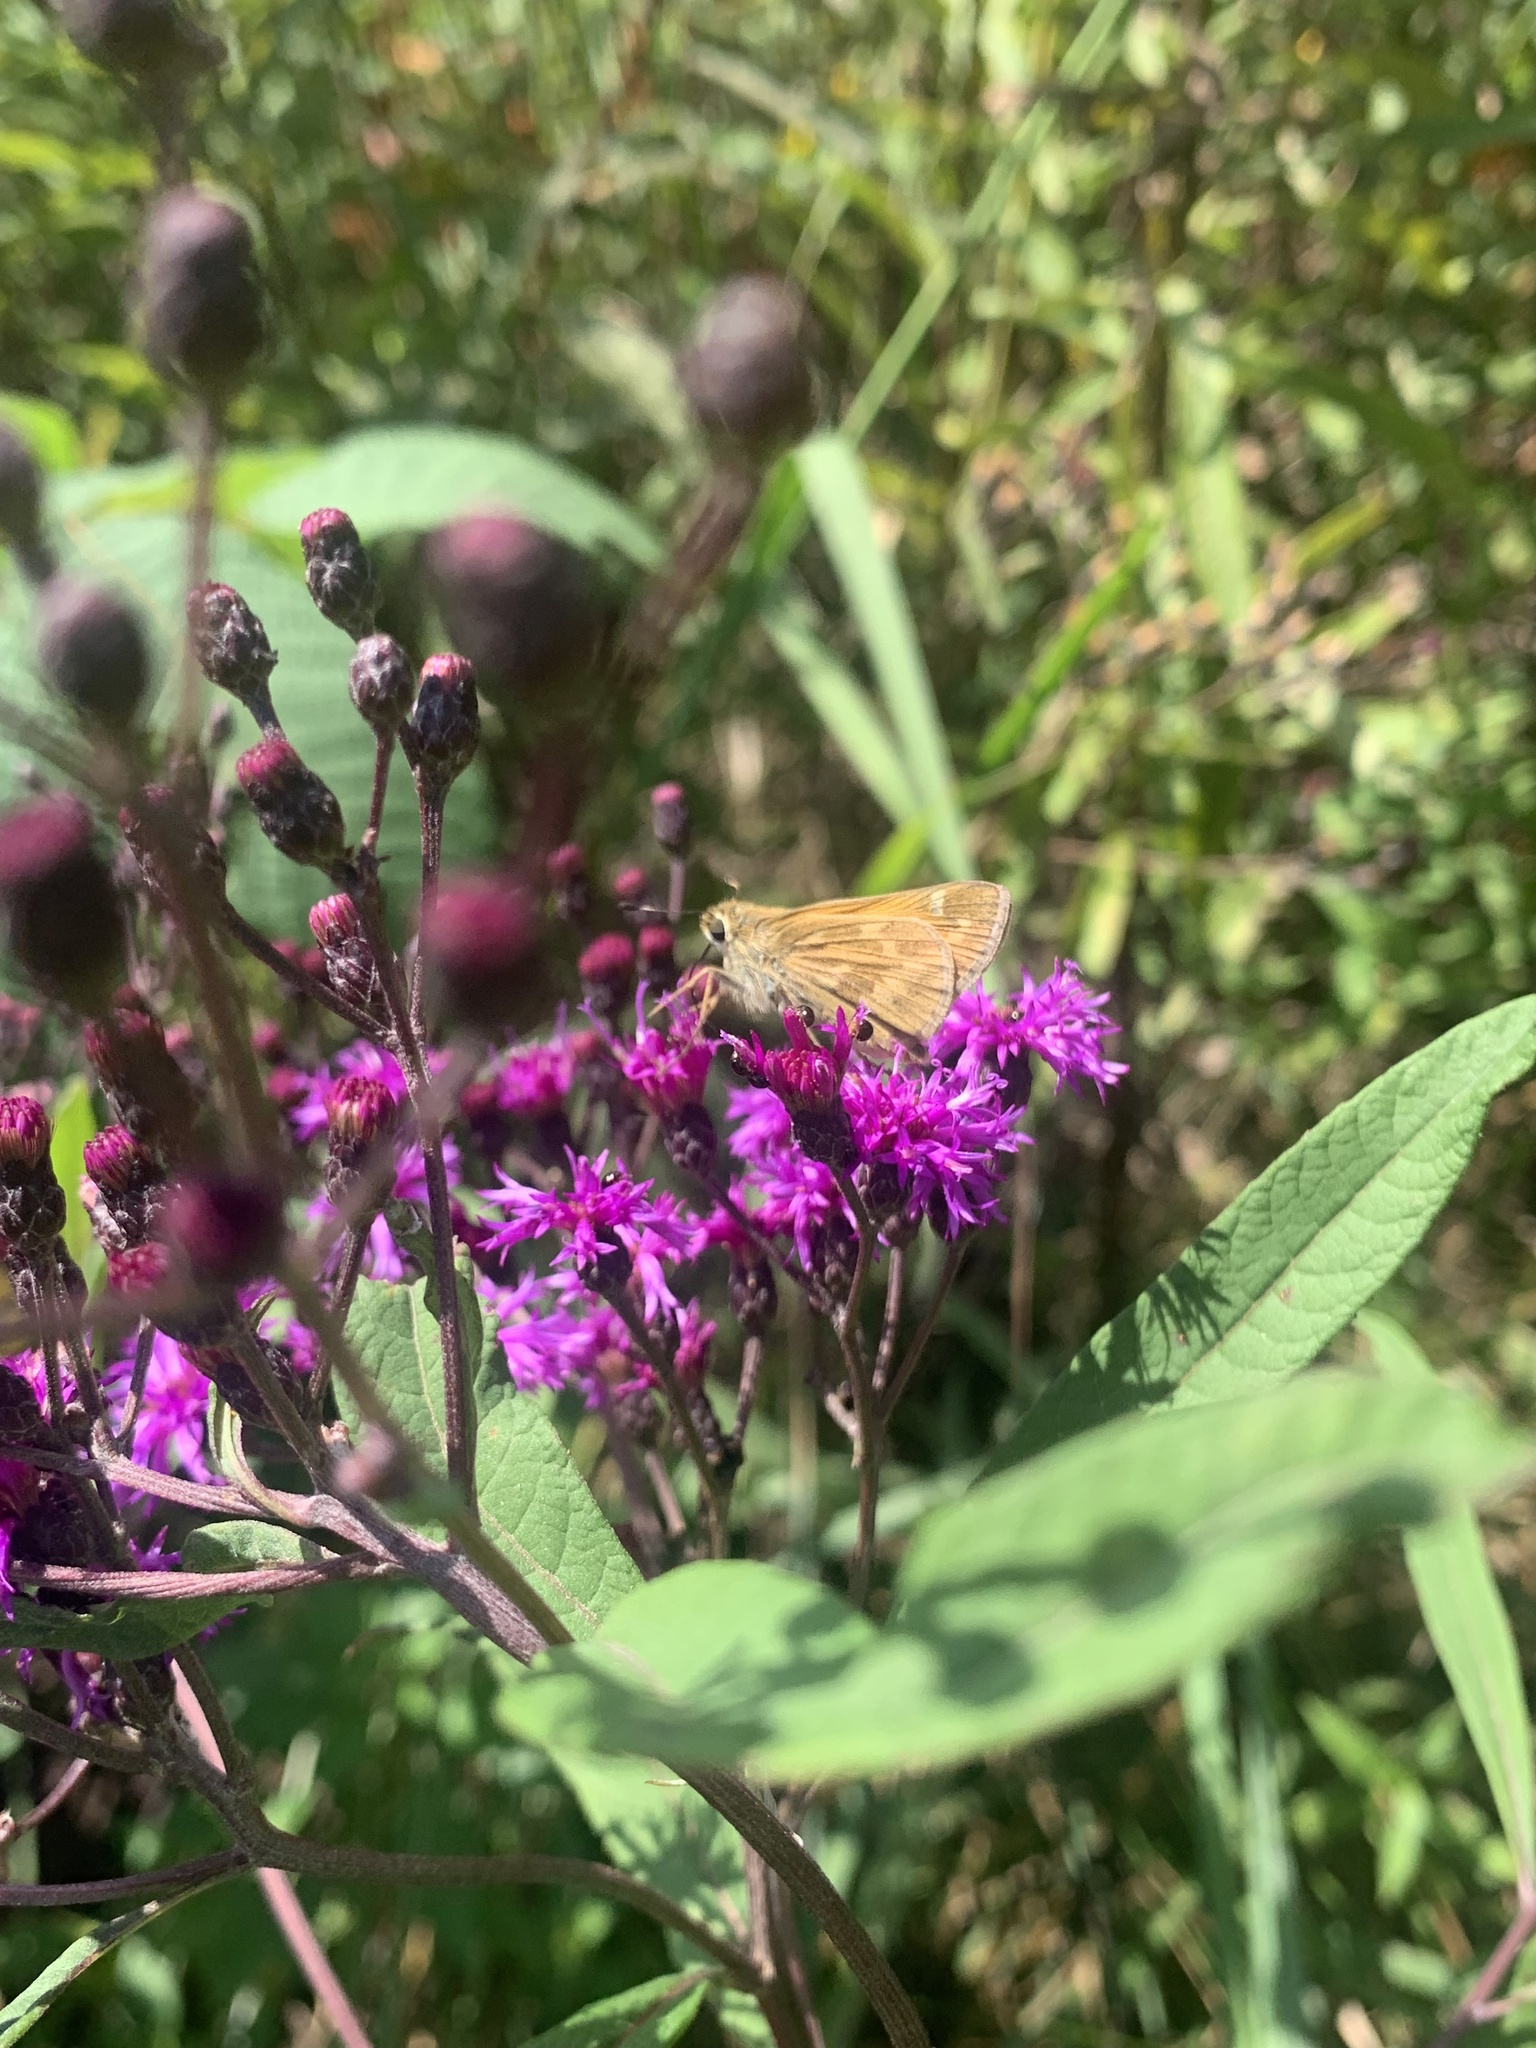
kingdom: Animalia
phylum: Arthropoda
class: Insecta
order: Lepidoptera
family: Hesperiidae
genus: Atalopedes
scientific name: Atalopedes
